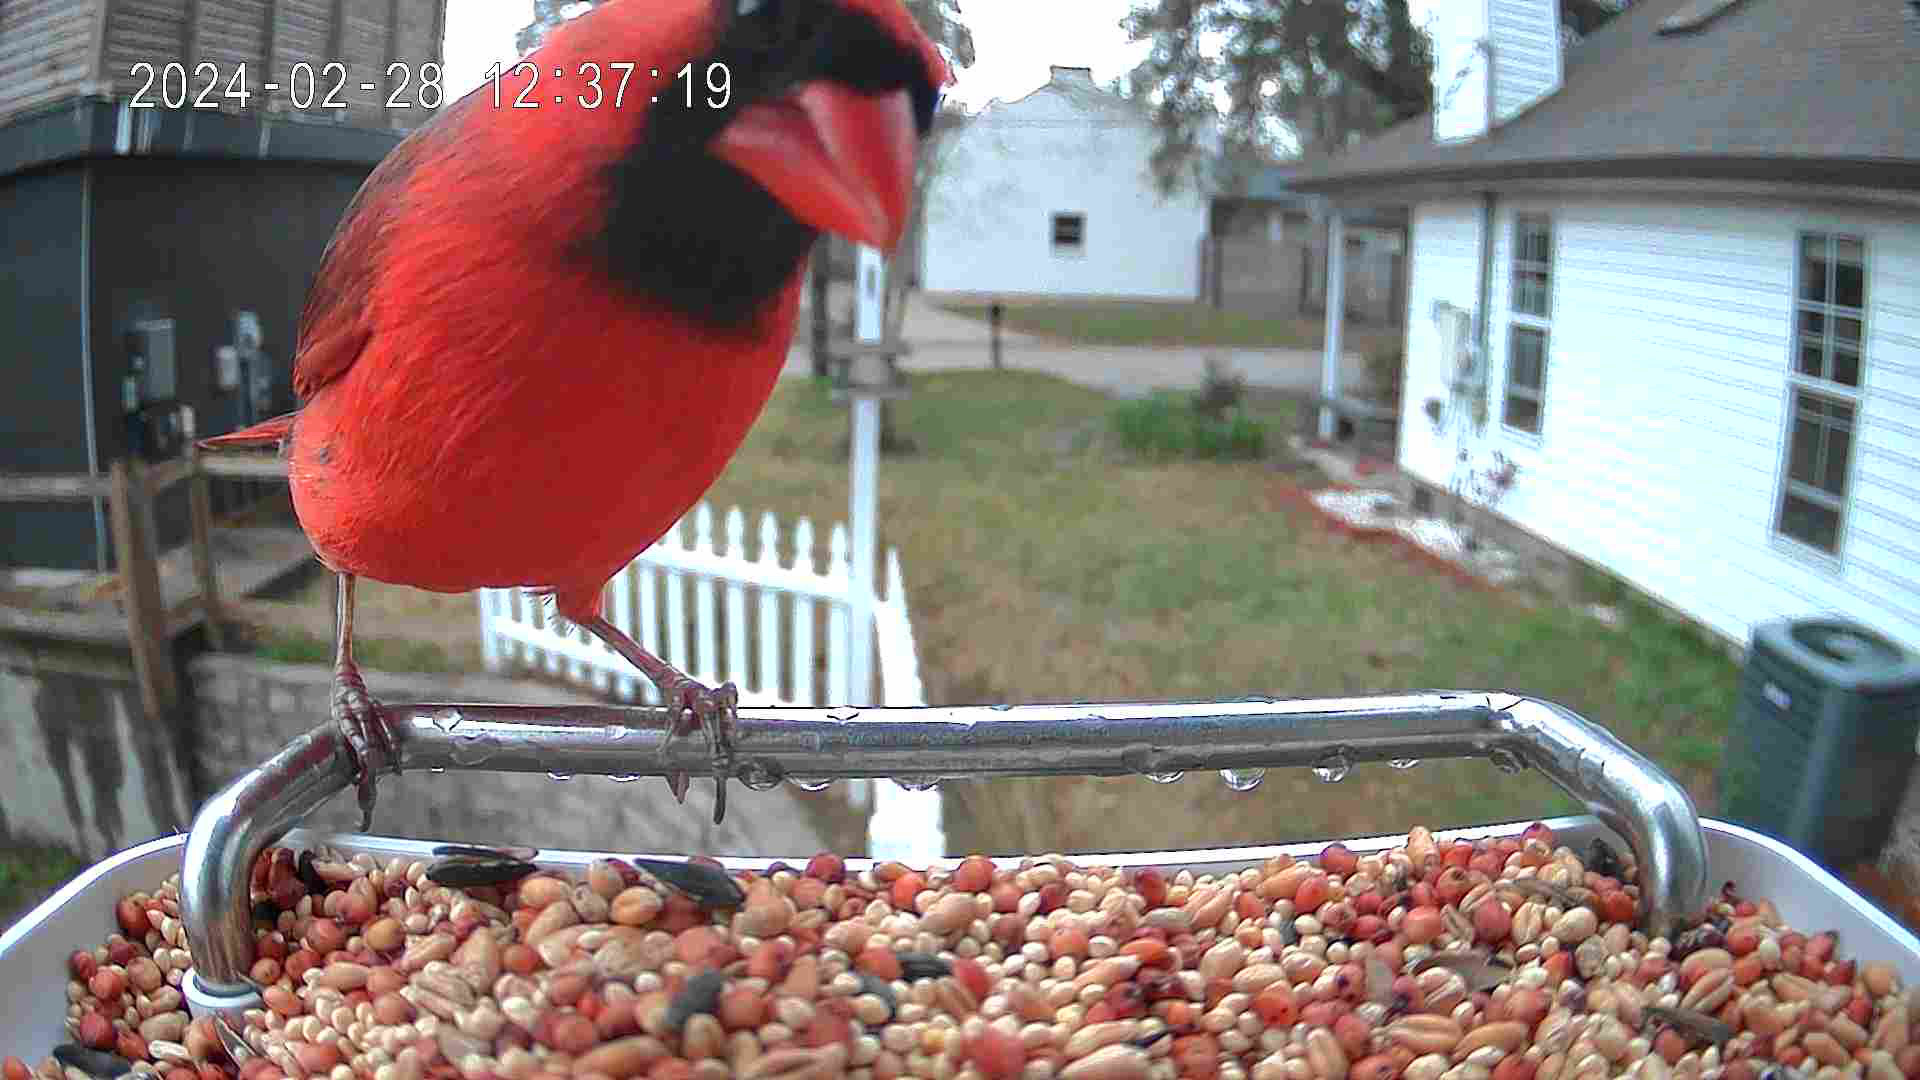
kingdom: Animalia
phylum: Chordata
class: Aves
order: Passeriformes
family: Cardinalidae
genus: Cardinalis
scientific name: Cardinalis cardinalis
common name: Northern cardinal
